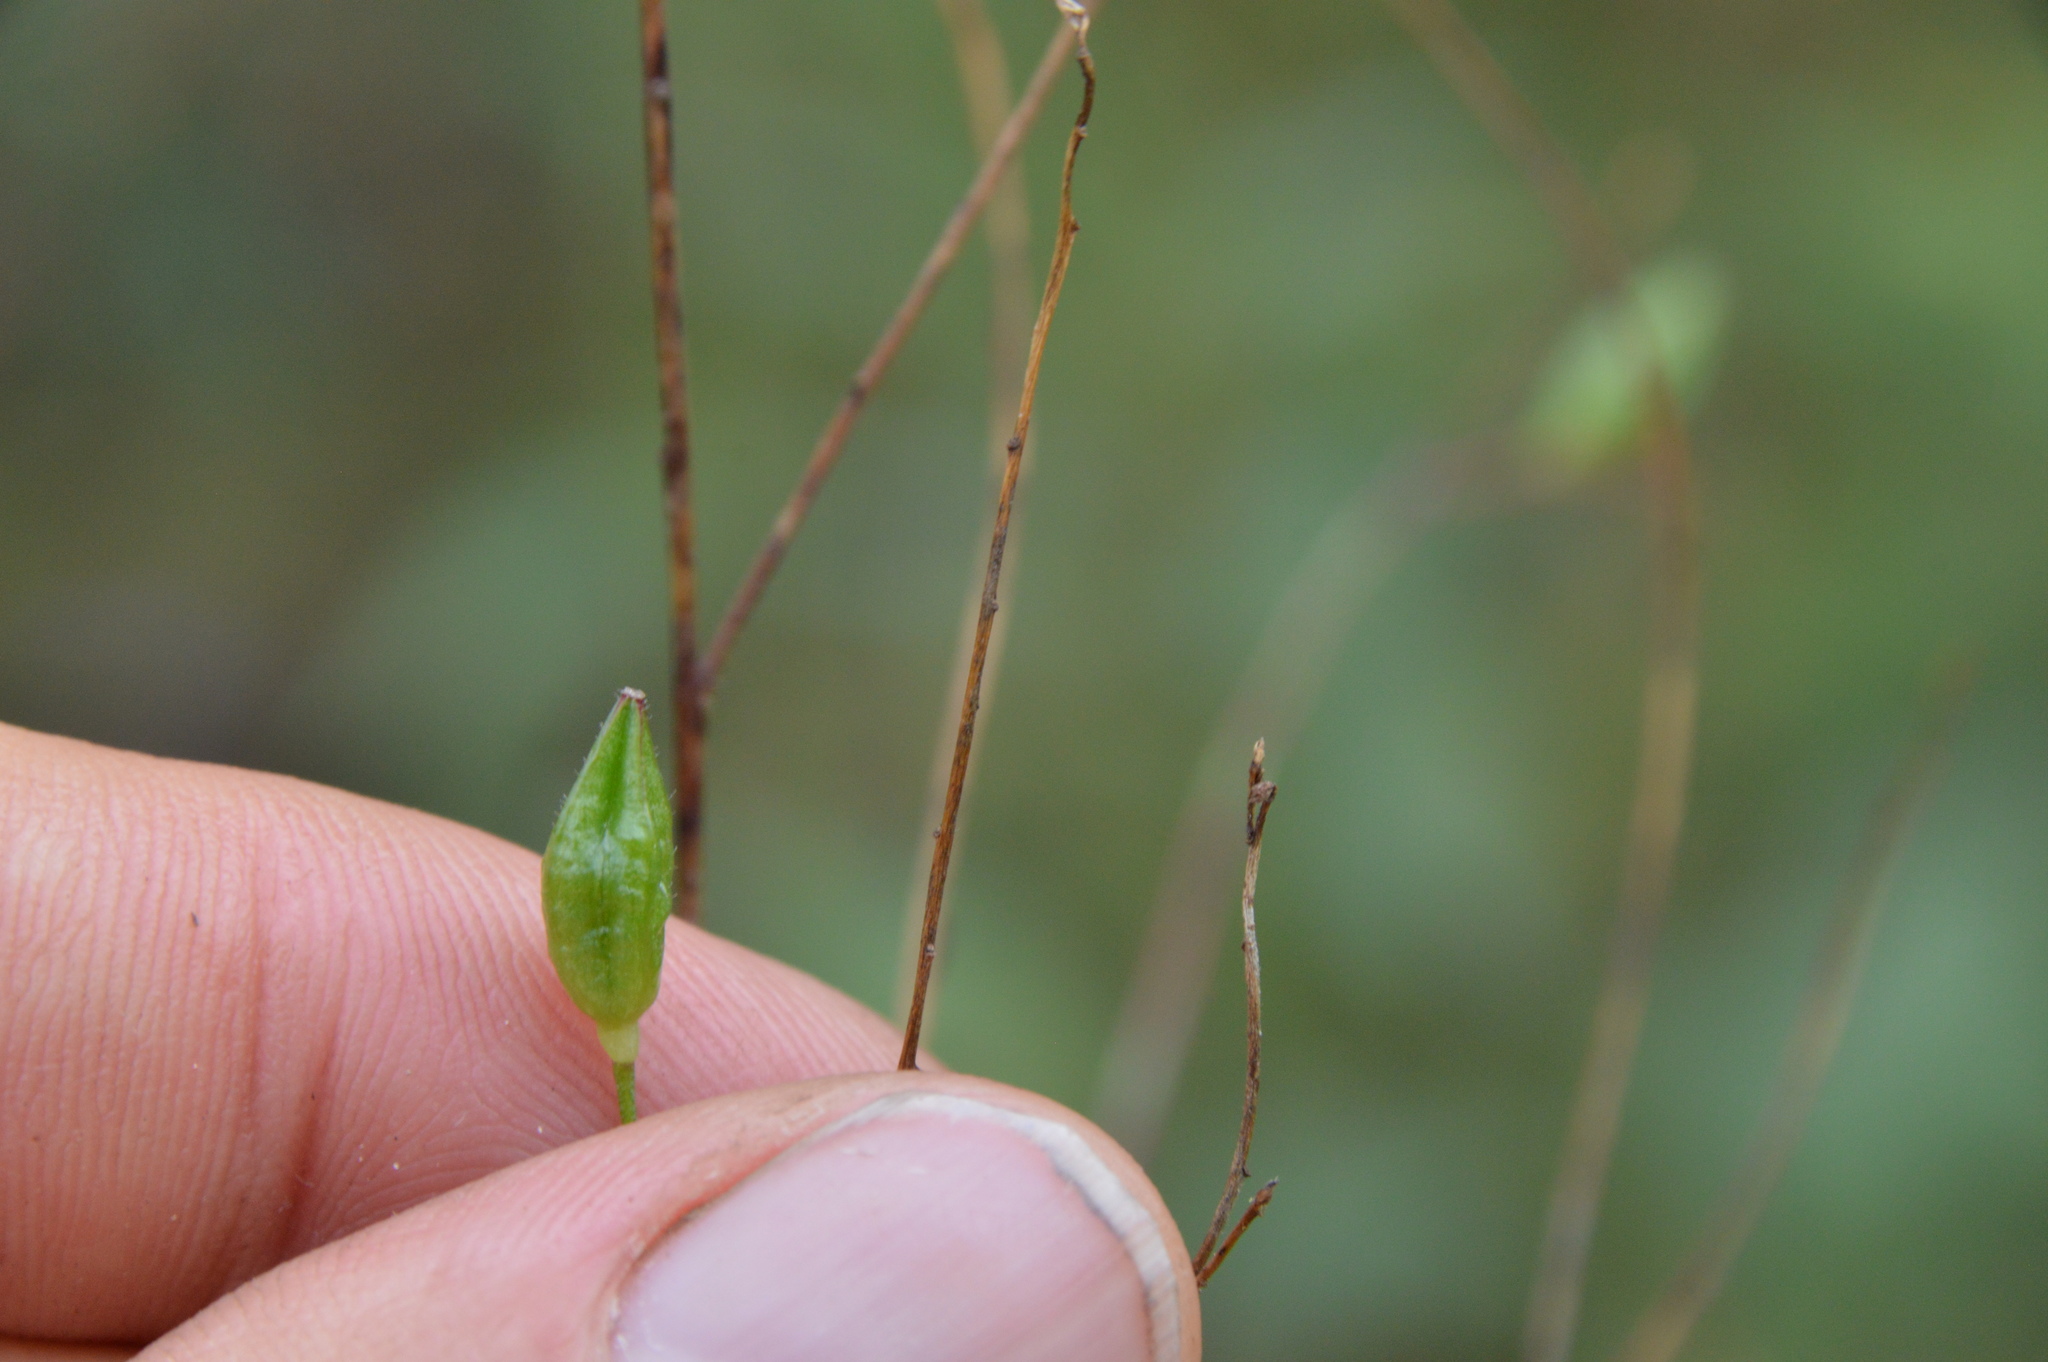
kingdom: Plantae
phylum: Tracheophyta
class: Magnoliopsida
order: Myrtales
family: Onagraceae
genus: Oenothera
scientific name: Oenothera lindheimeri
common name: Lindheimer's beeblossom
